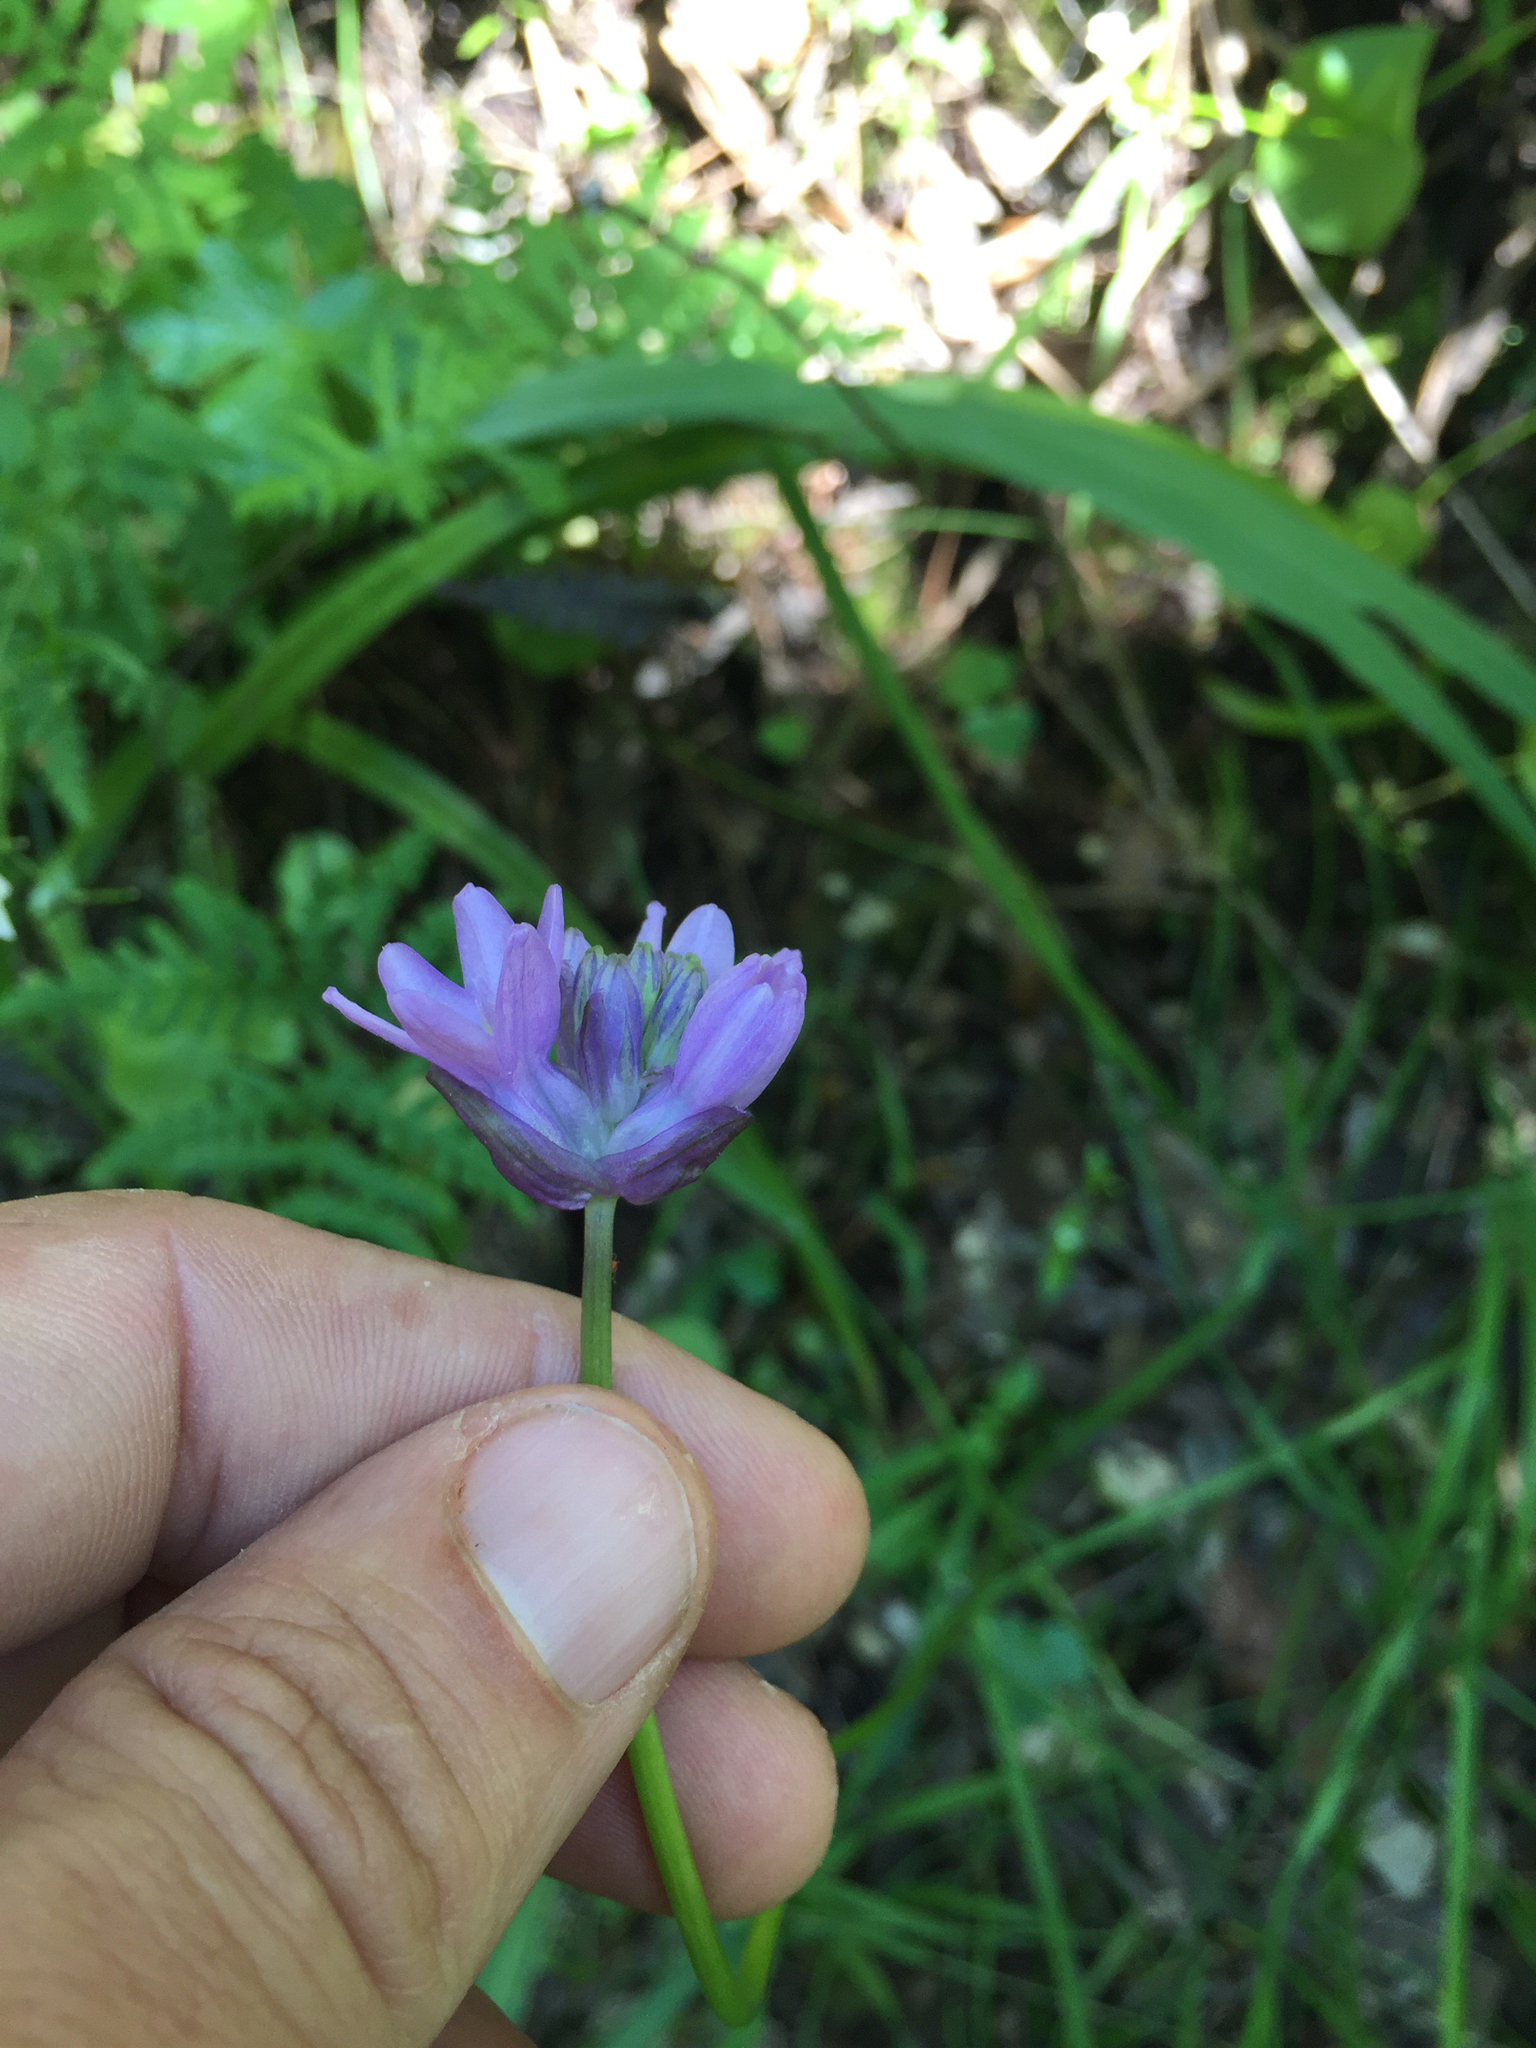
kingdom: Plantae
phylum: Tracheophyta
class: Liliopsida
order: Asparagales
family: Asparagaceae
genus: Dichelostemma
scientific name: Dichelostemma congestum
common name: Fork-tooth ookow
